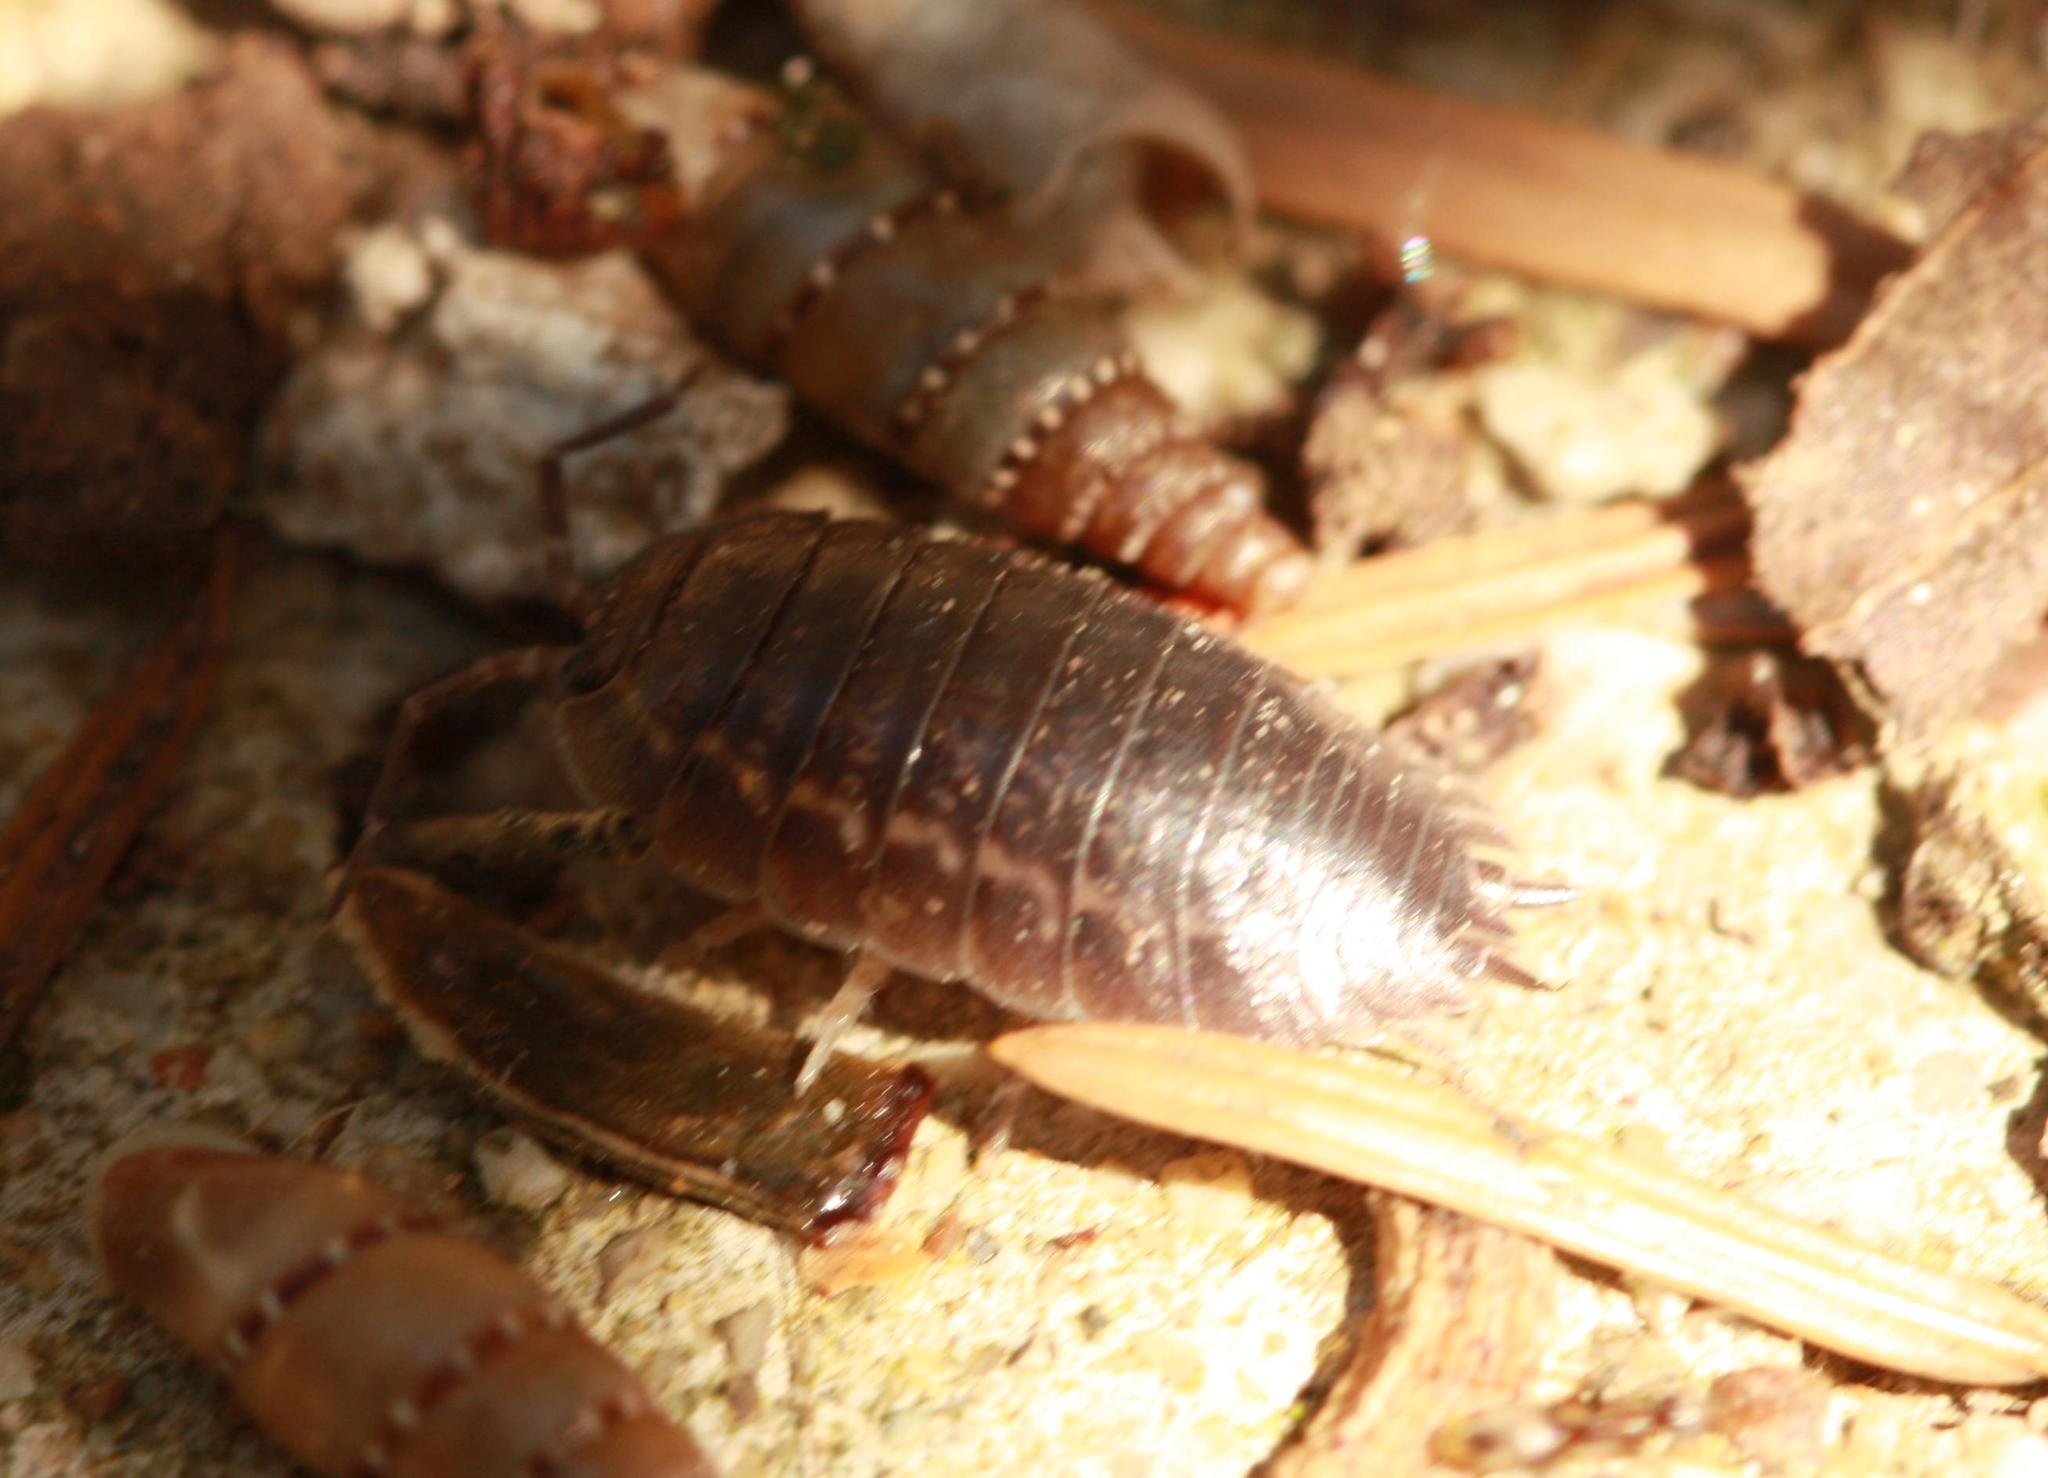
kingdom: Animalia
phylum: Arthropoda
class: Malacostraca
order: Isopoda
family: Porcellionidae
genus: Porcellio
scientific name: Porcellio laevis
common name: Swift woodlouse
